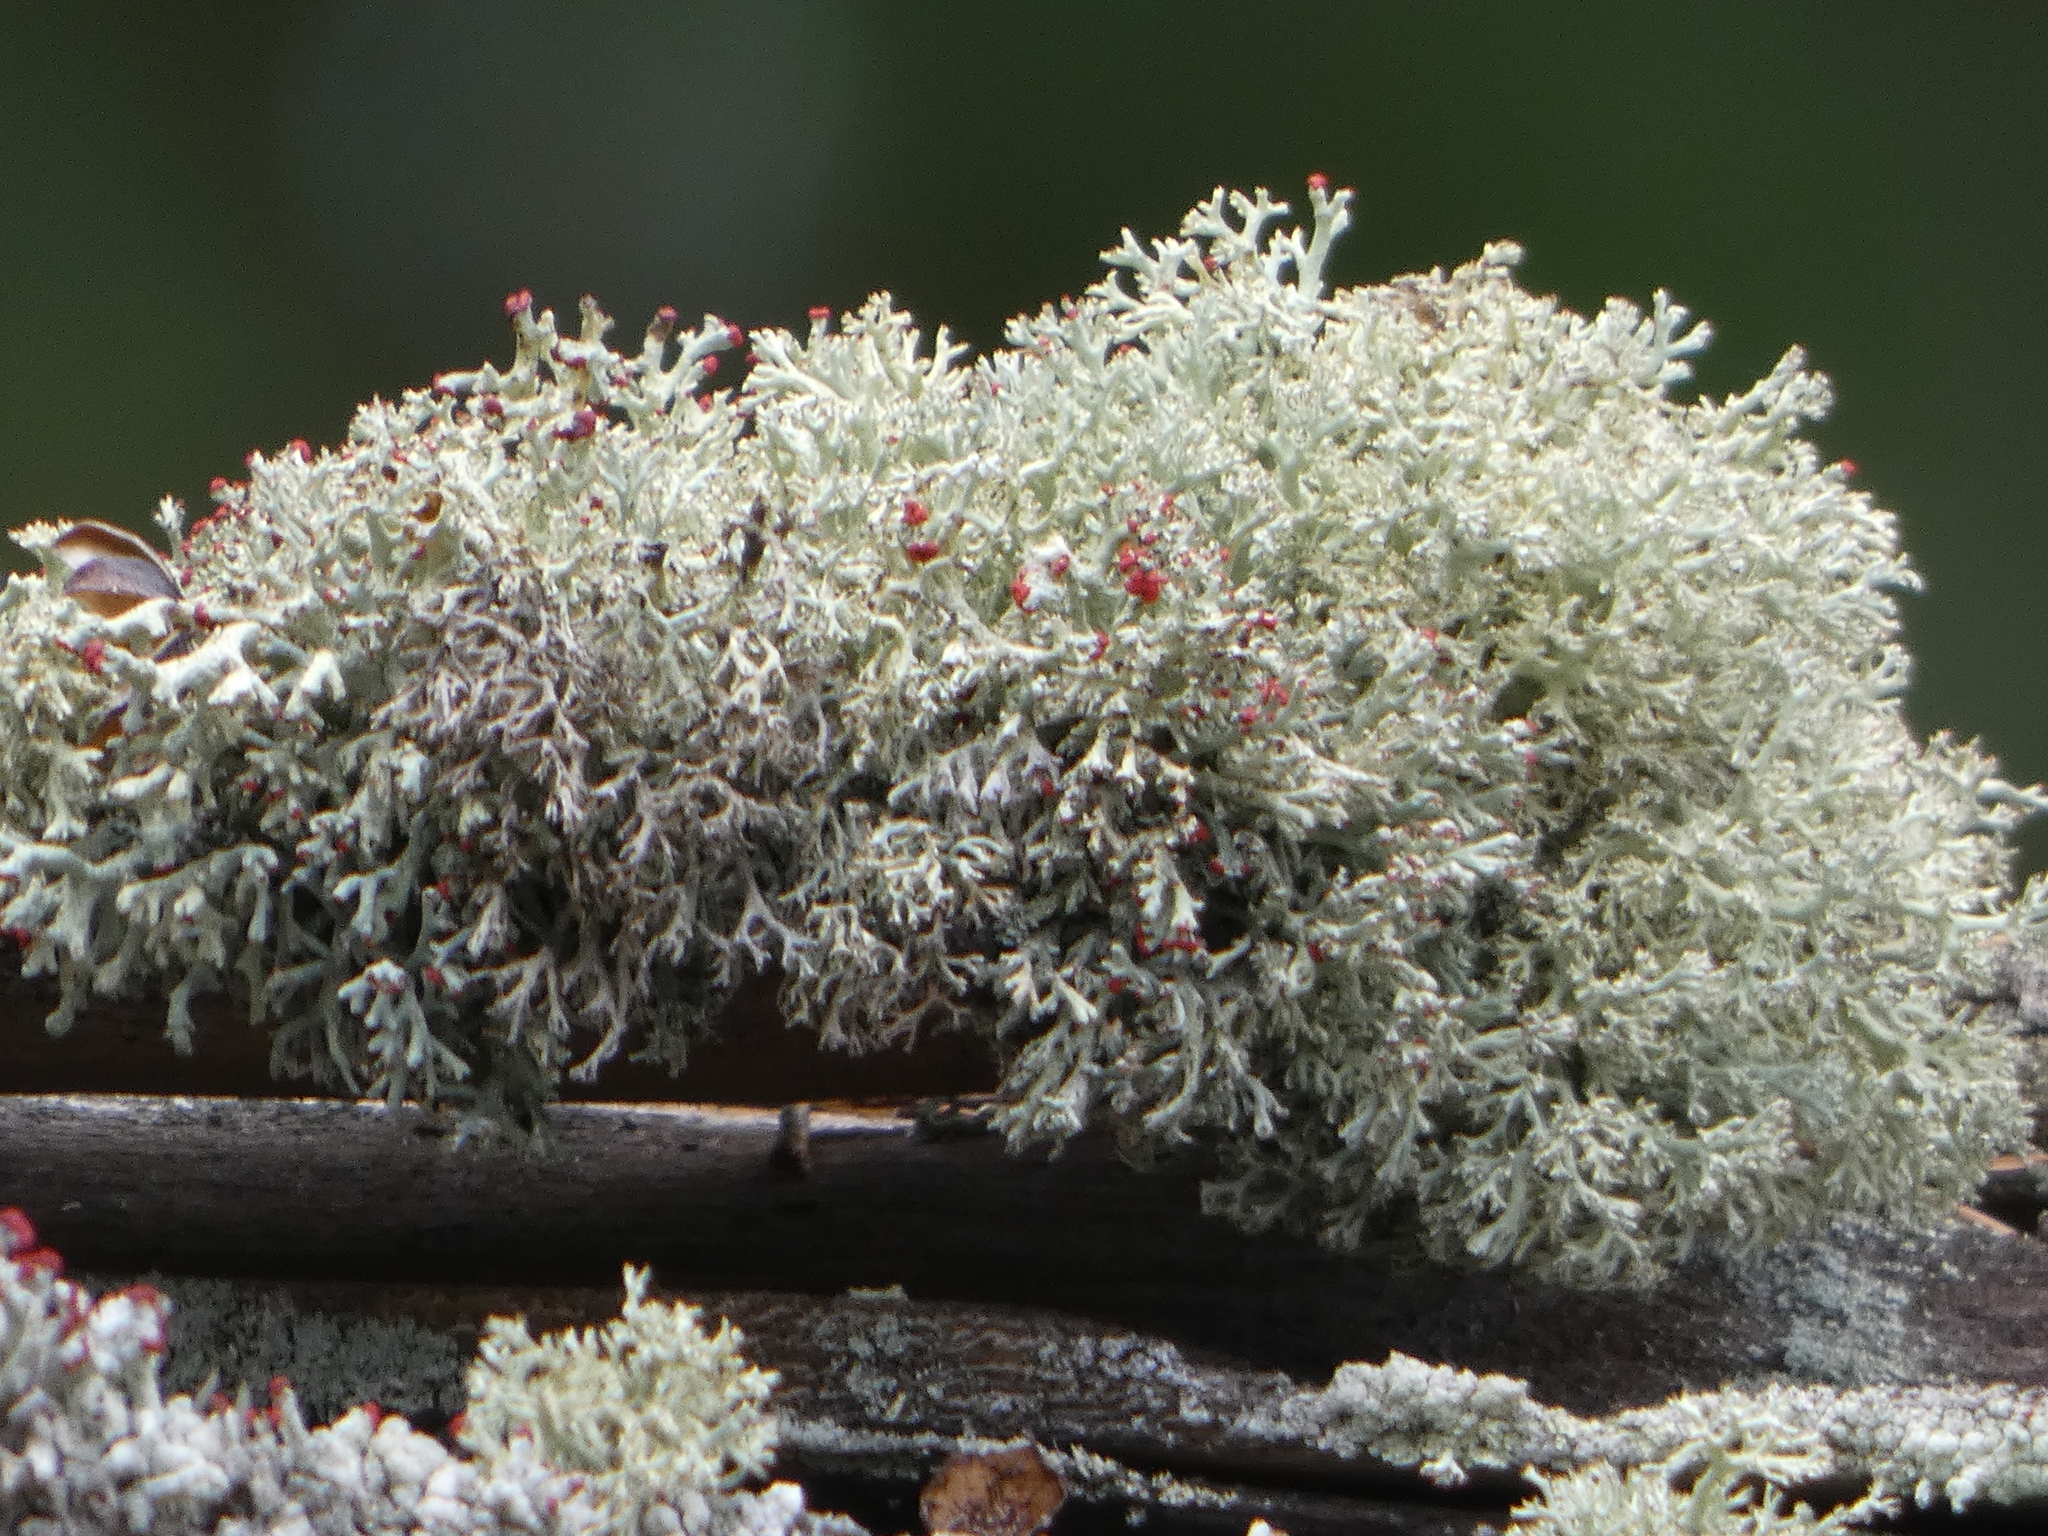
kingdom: Fungi
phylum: Ascomycota
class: Lecanoromycetes
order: Lecanorales
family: Cladoniaceae
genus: Cladonia
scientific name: Cladonia leporina
